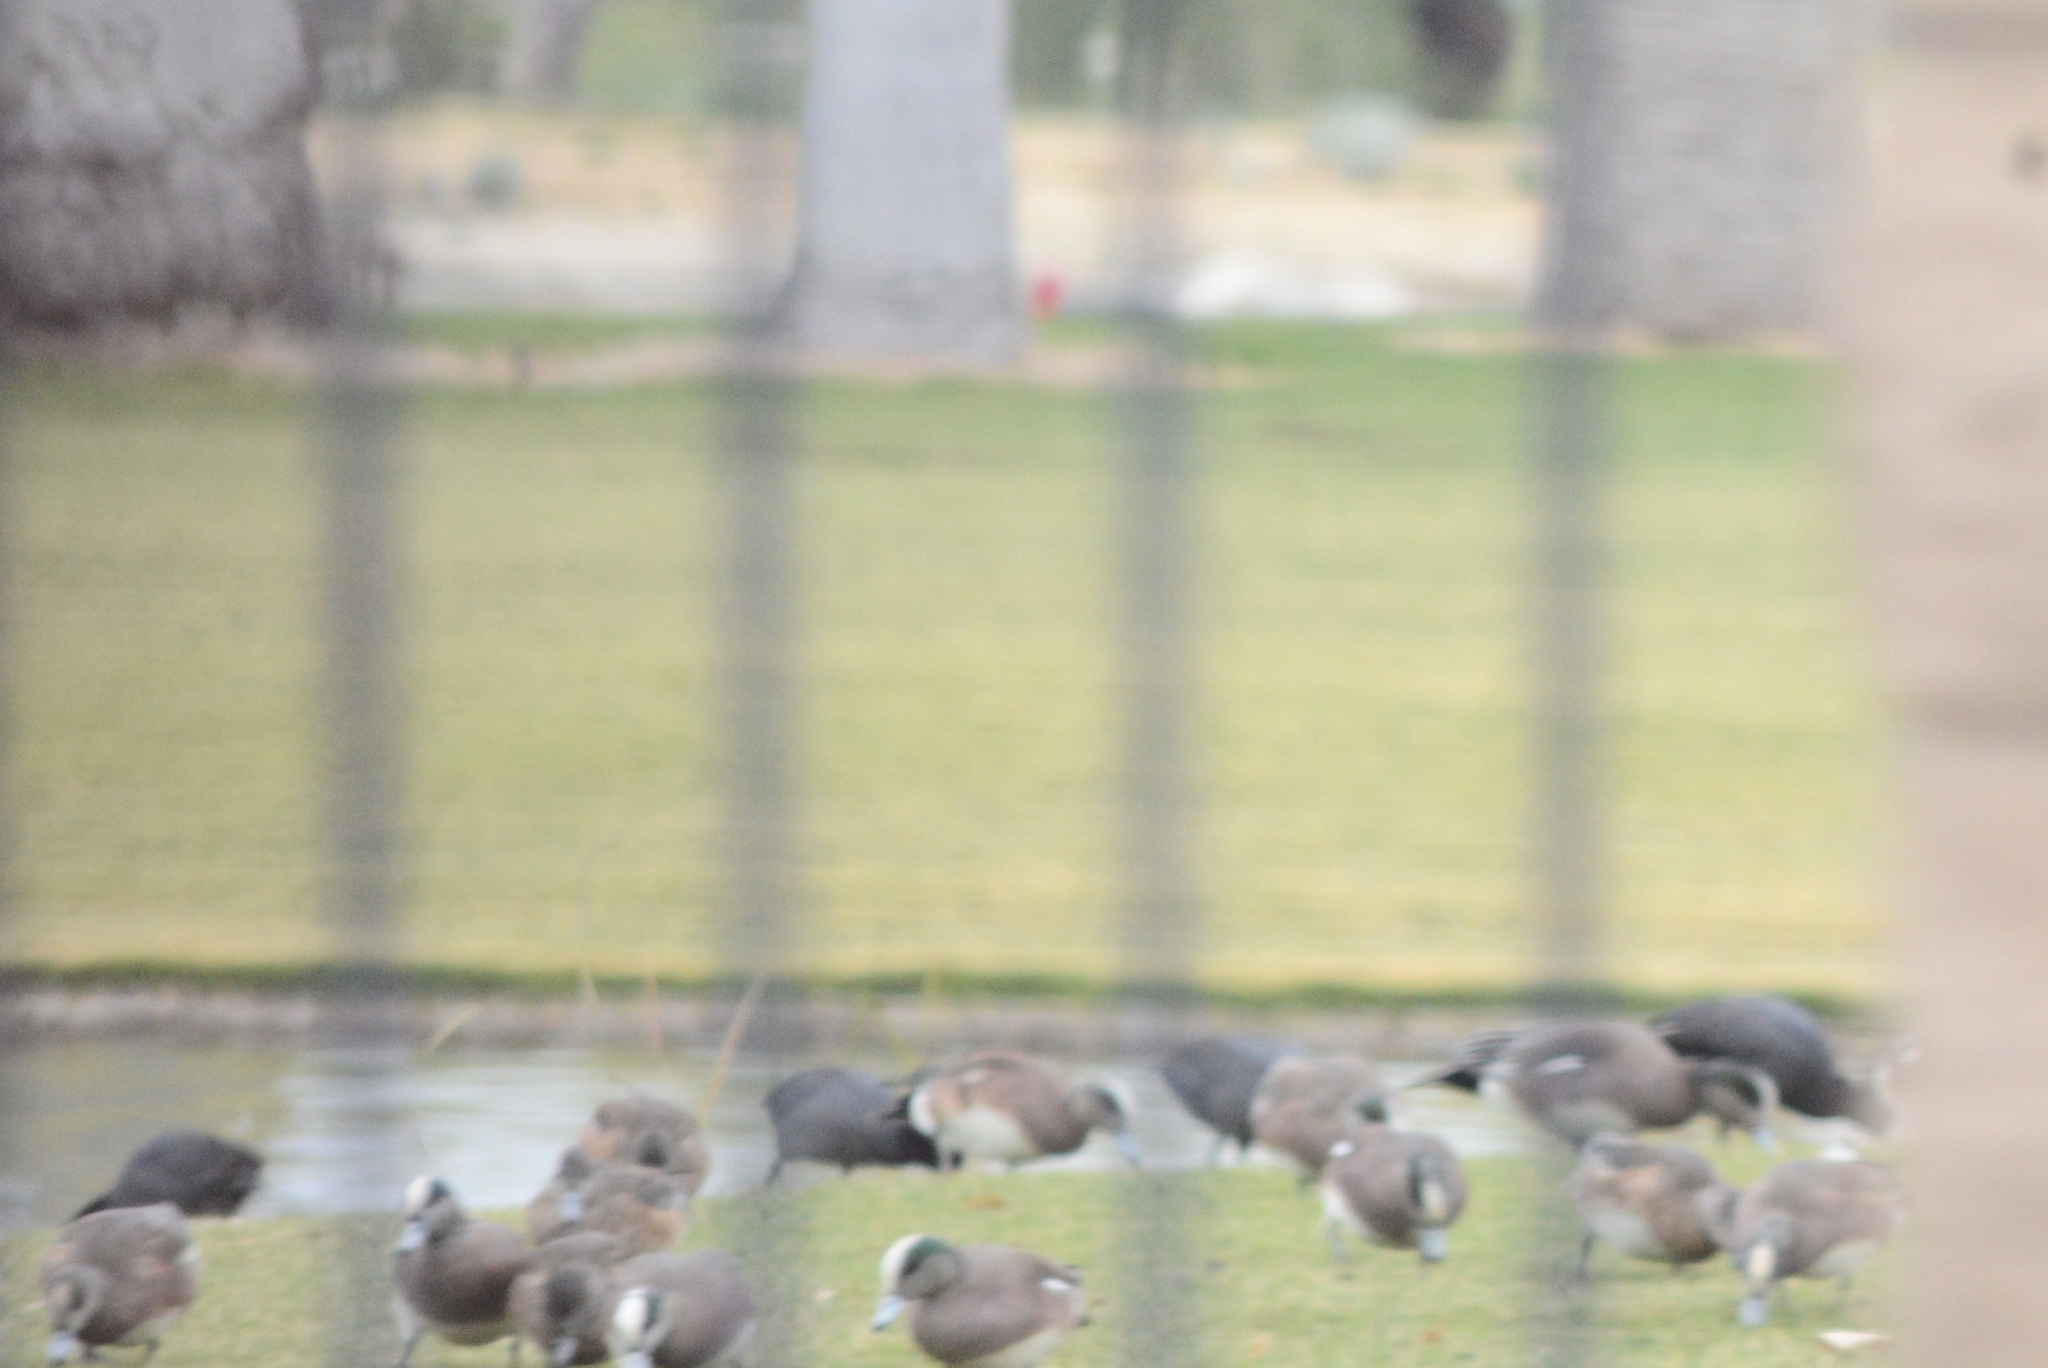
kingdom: Animalia
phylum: Chordata
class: Aves
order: Gruiformes
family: Rallidae
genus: Fulica
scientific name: Fulica americana
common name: American coot
